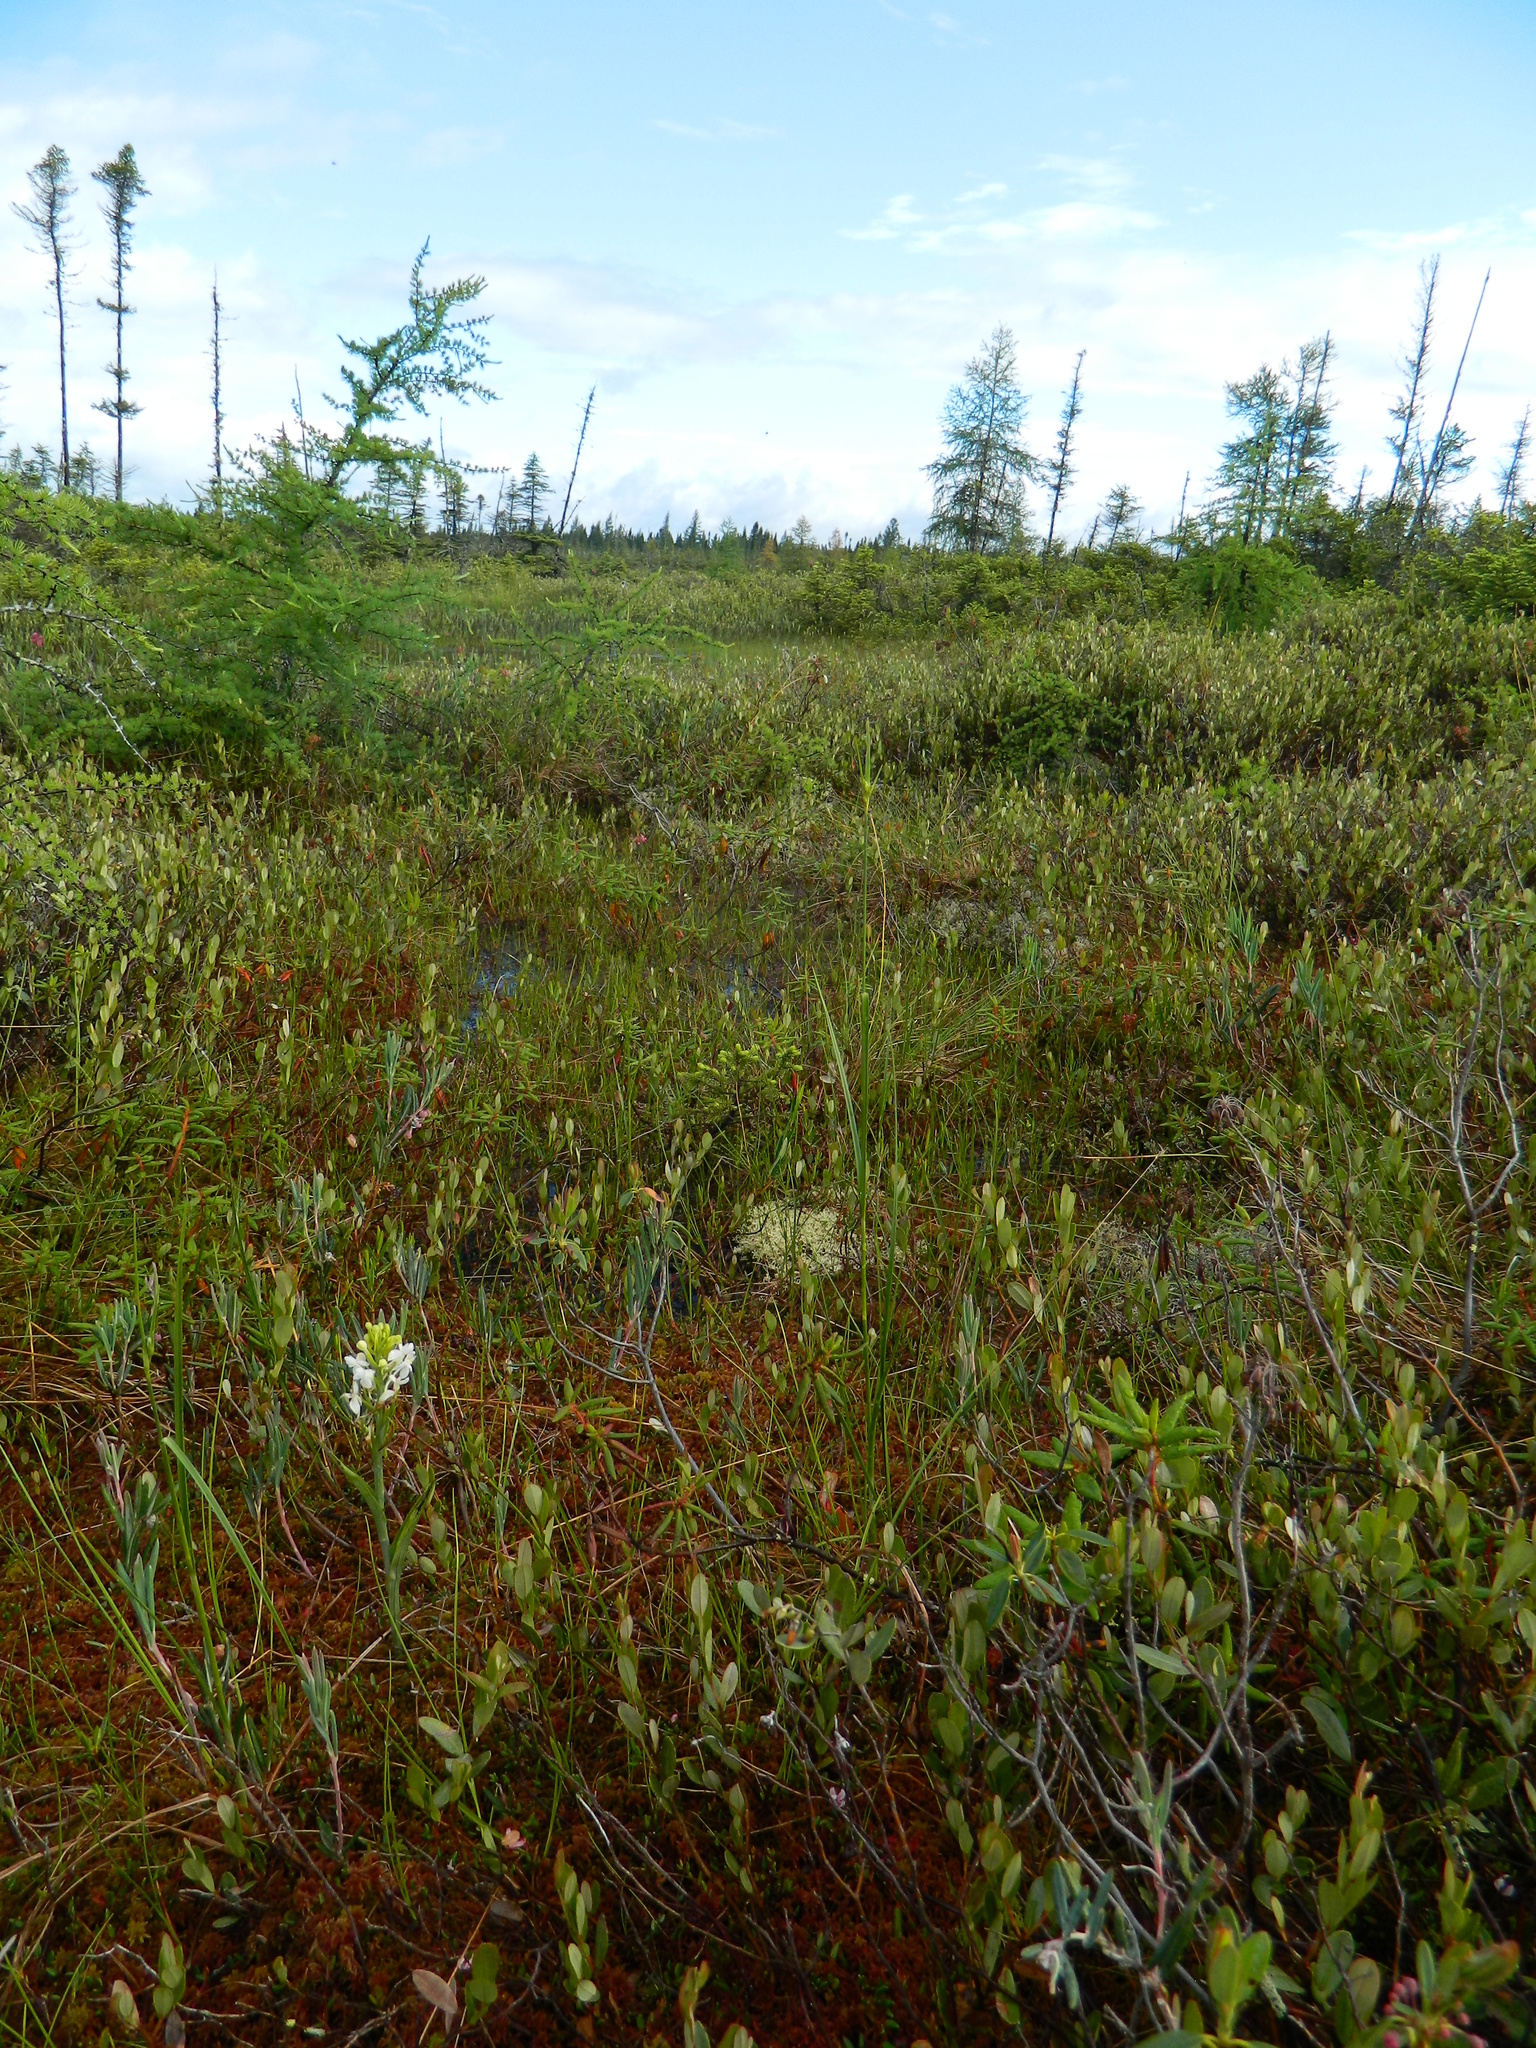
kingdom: Plantae
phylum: Tracheophyta
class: Liliopsida
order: Asparagales
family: Orchidaceae
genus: Platanthera
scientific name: Platanthera blephariglottis
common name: White fringed orchid
